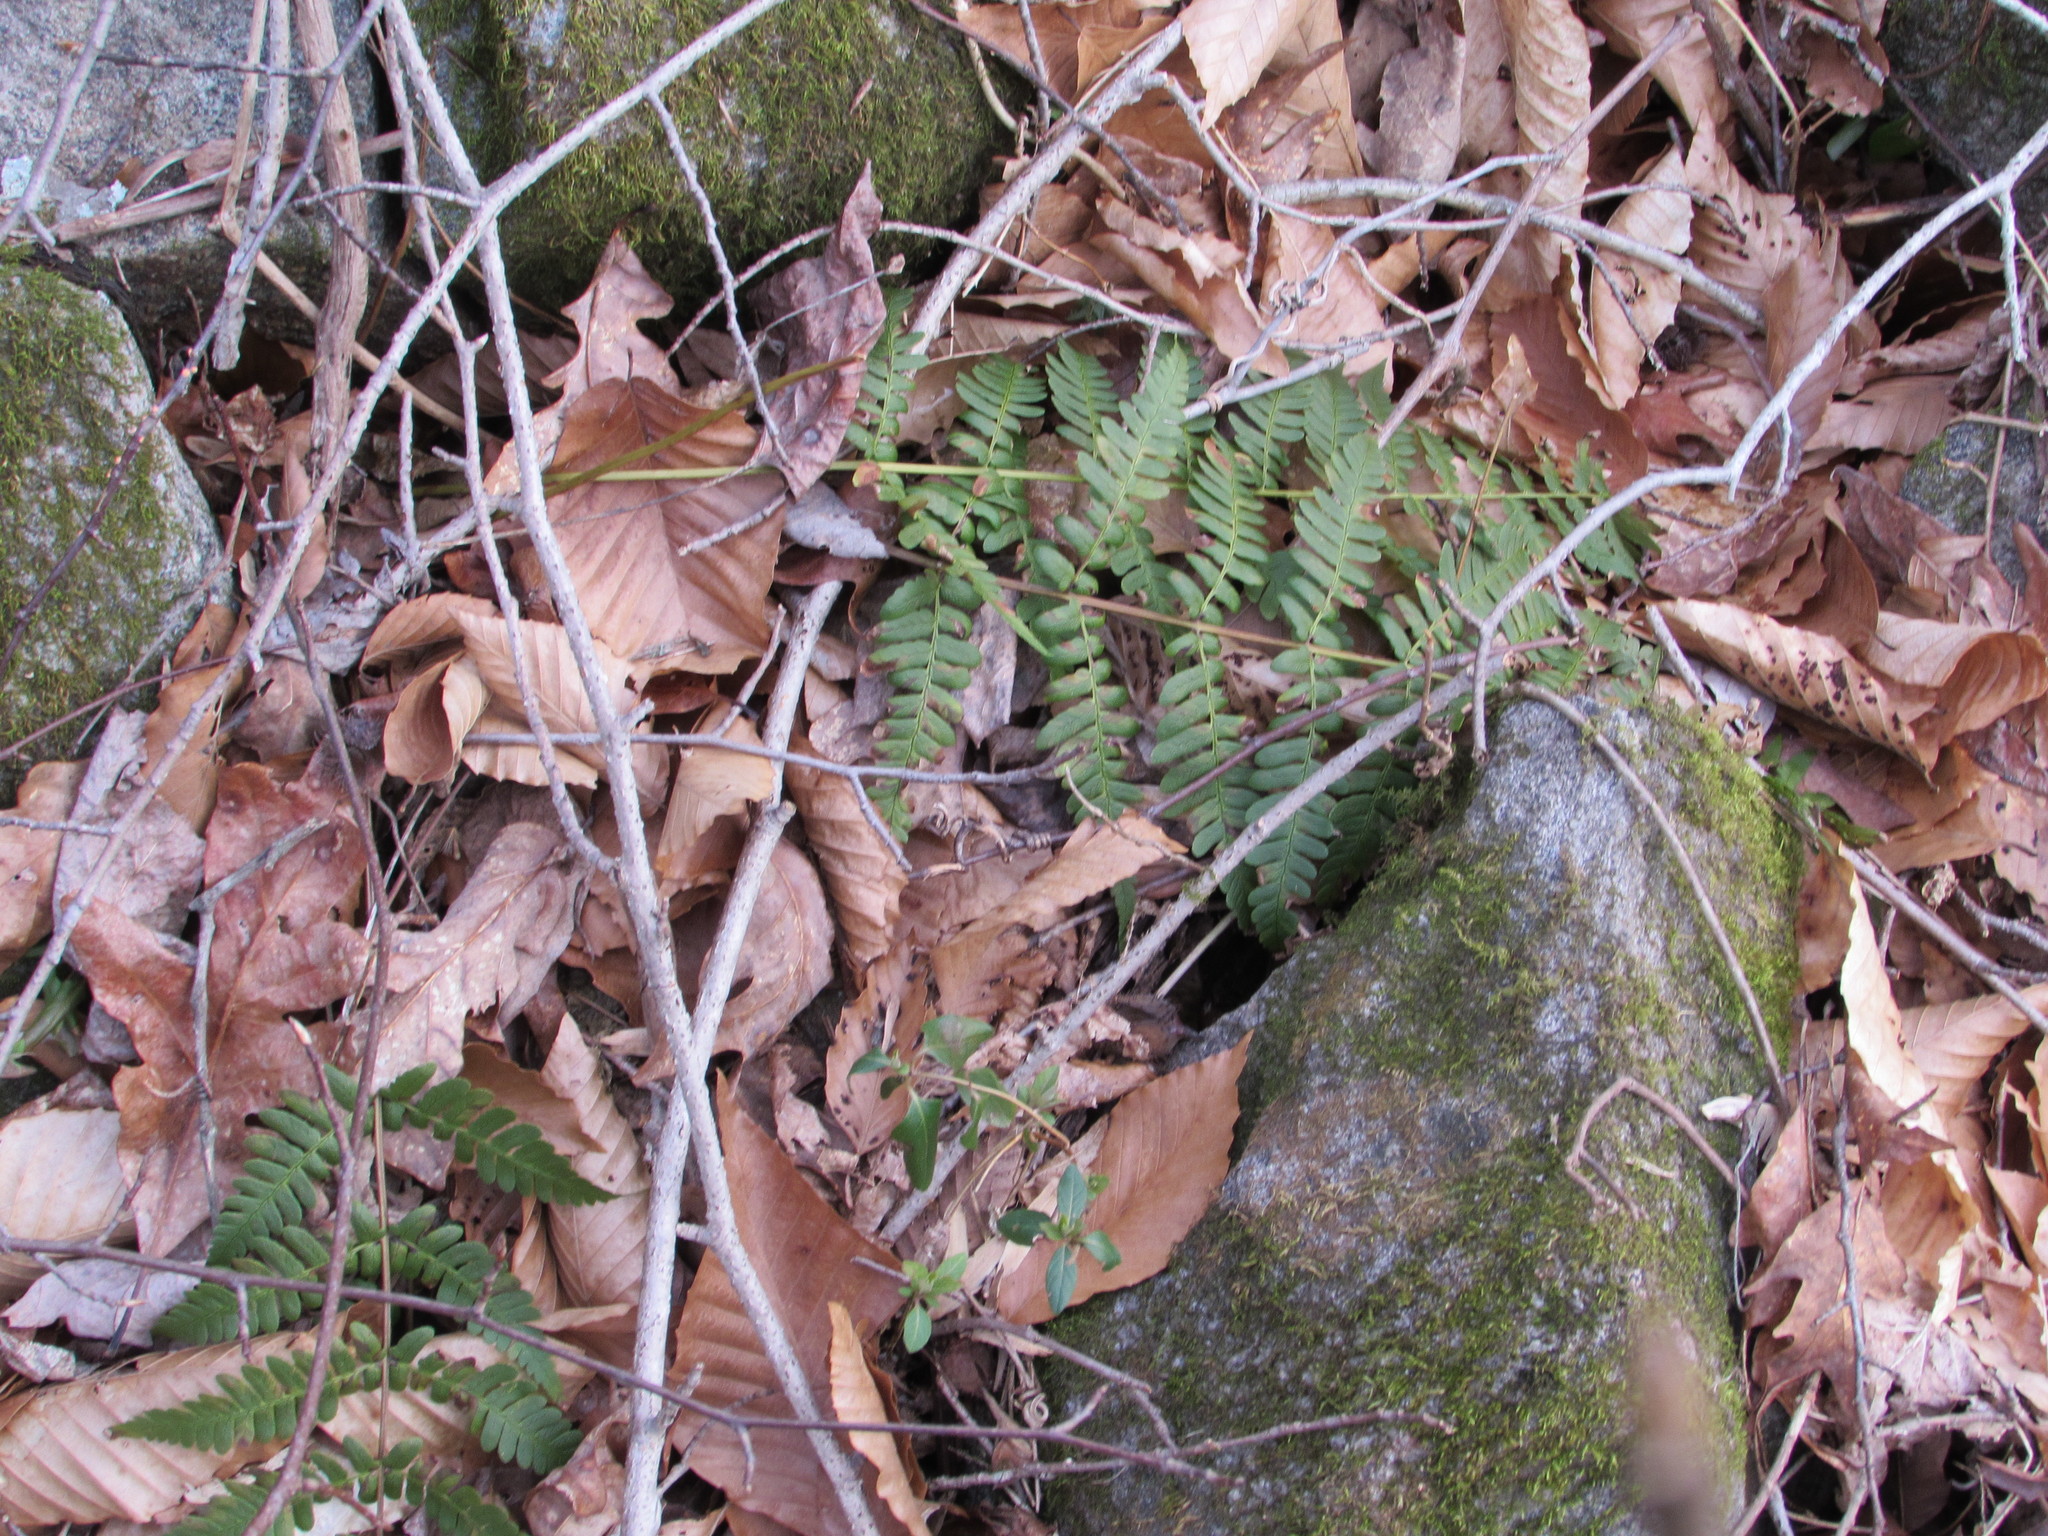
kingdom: Plantae
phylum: Tracheophyta
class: Polypodiopsida
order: Polypodiales
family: Dryopteridaceae
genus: Dryopteris
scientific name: Dryopteris marginalis
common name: Marginal wood fern
